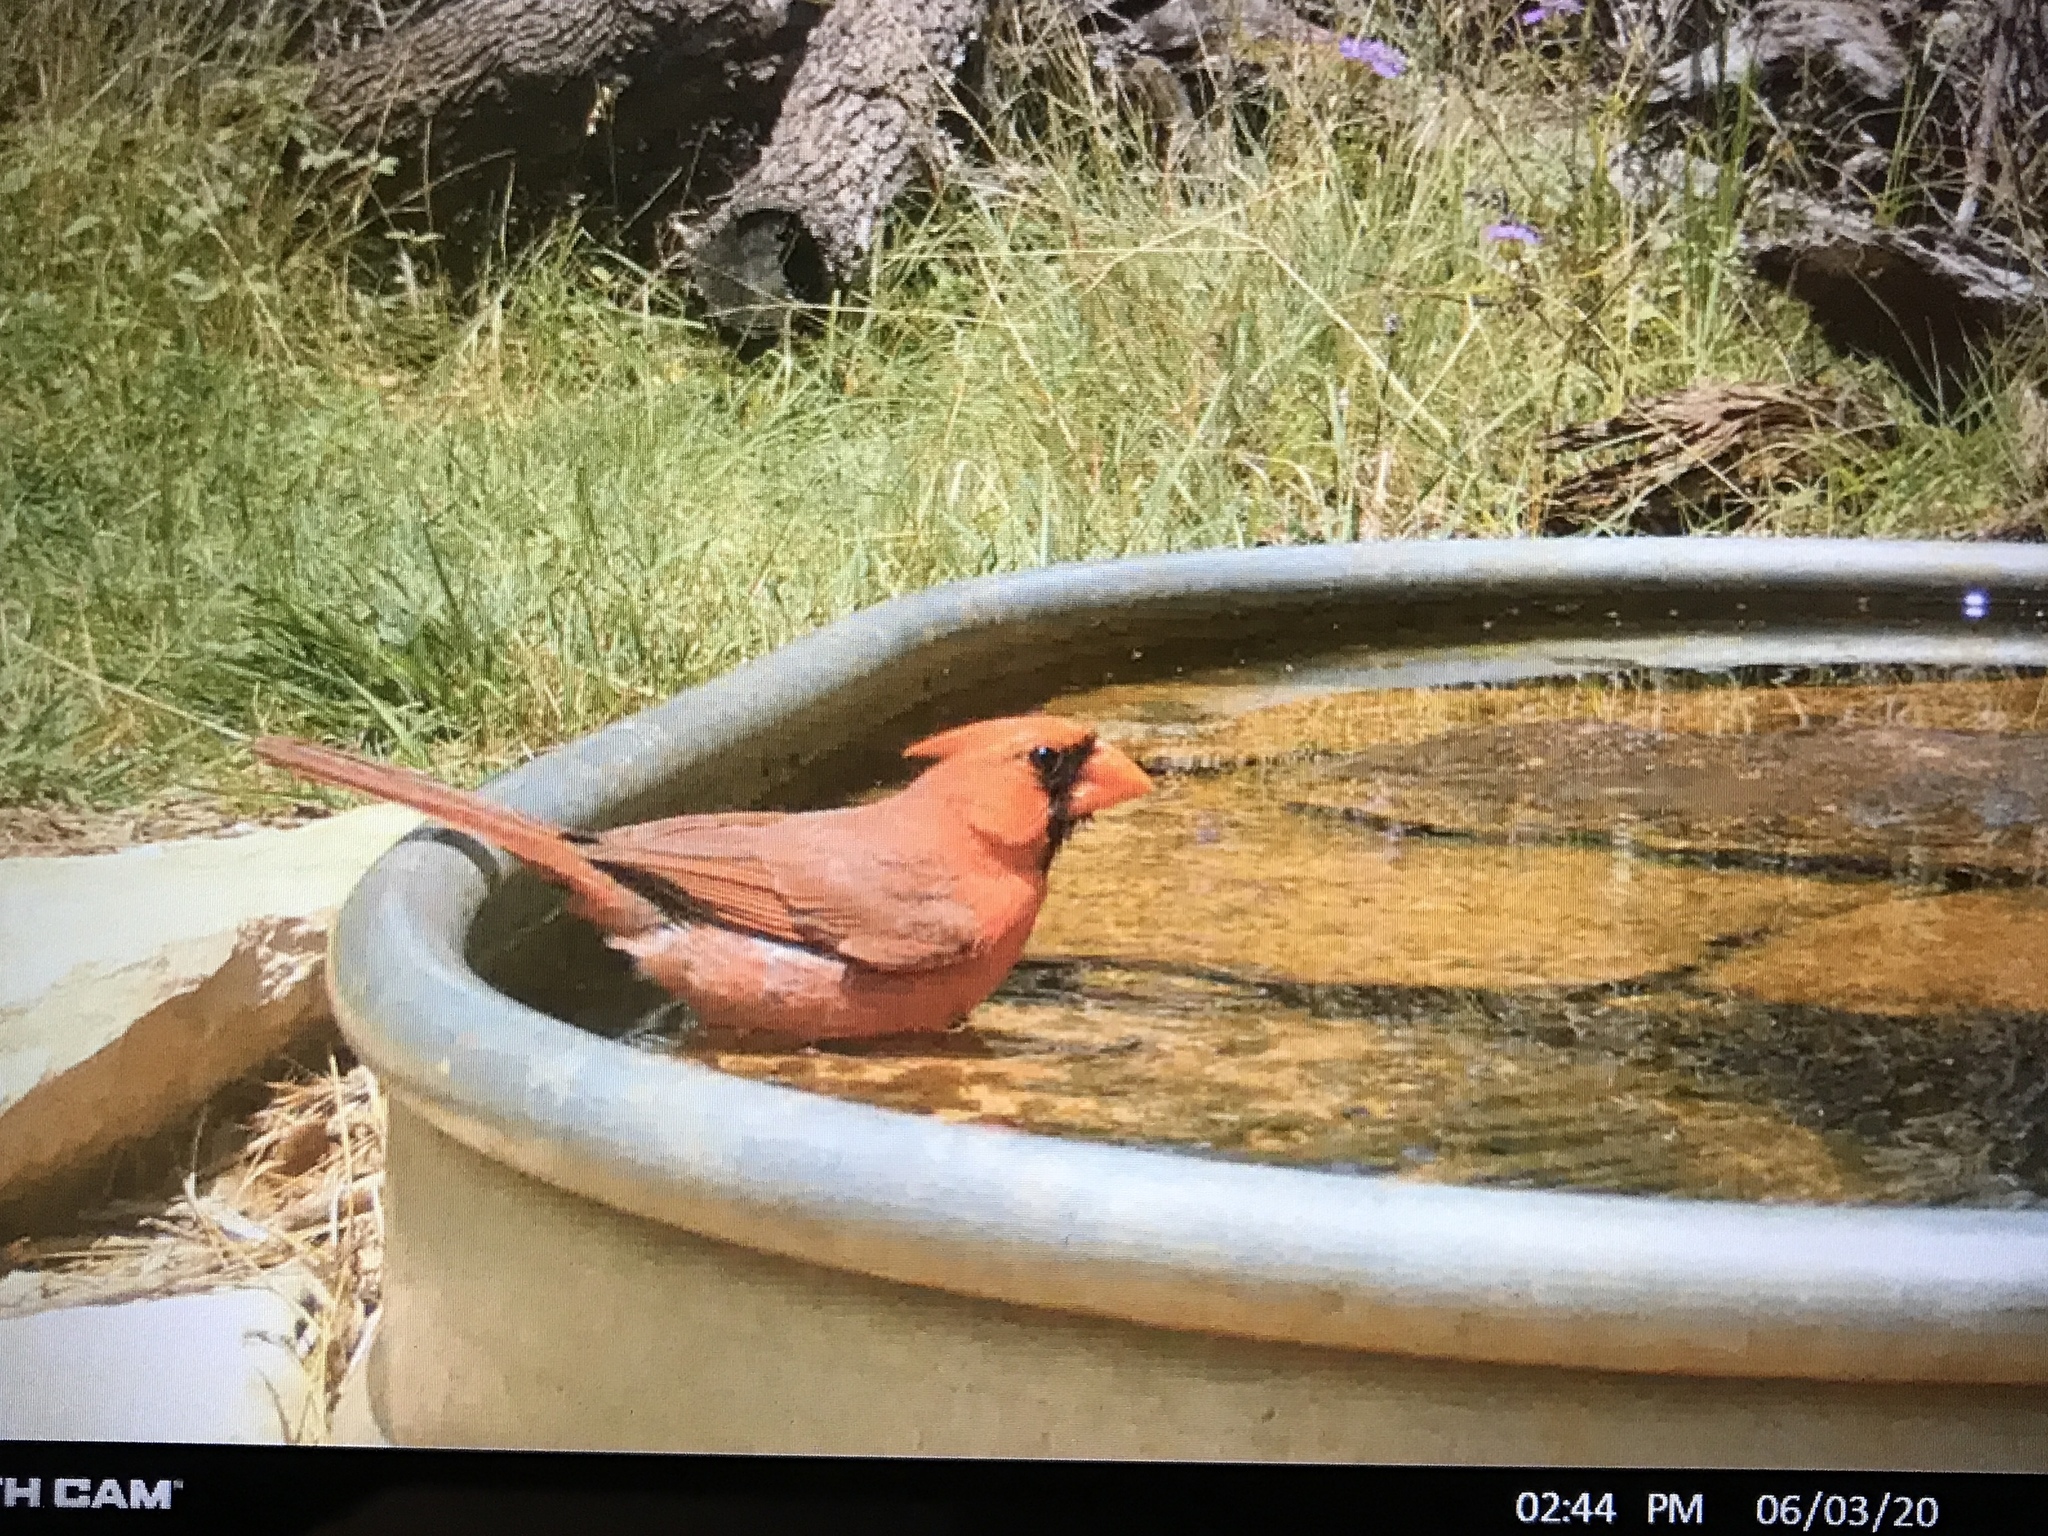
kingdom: Animalia
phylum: Chordata
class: Aves
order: Passeriformes
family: Cardinalidae
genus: Cardinalis
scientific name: Cardinalis cardinalis
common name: Northern cardinal
